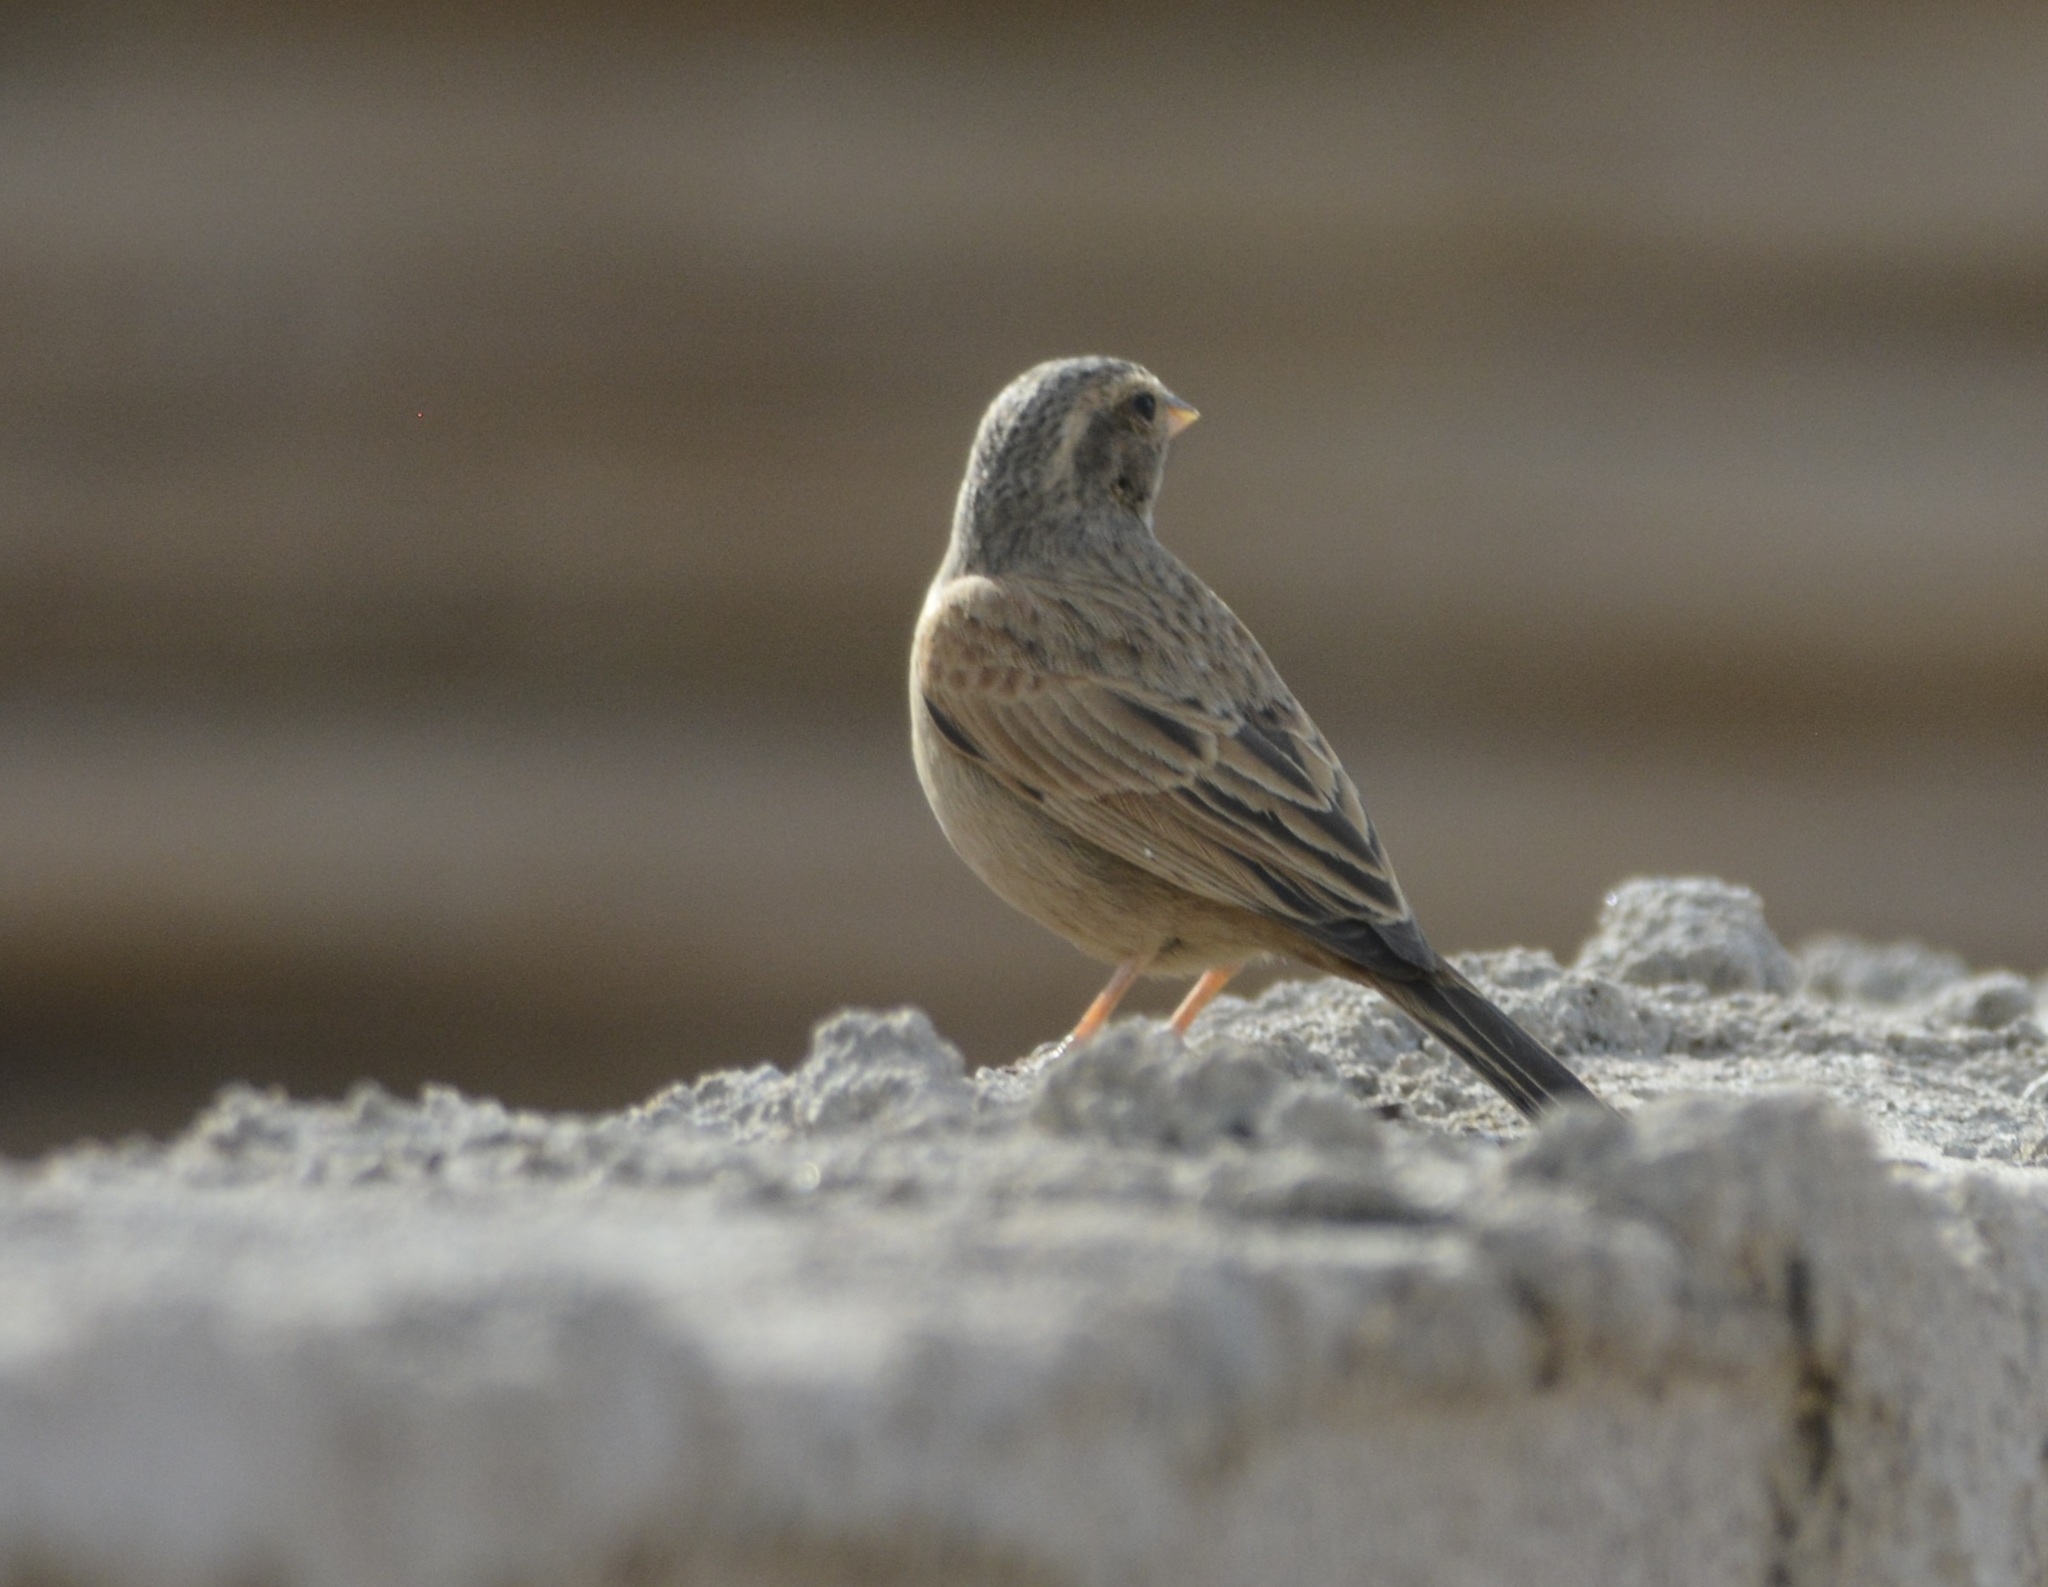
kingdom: Animalia
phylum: Chordata
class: Aves
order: Passeriformes
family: Emberizidae
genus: Emberiza
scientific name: Emberiza sahari
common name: House bunting
